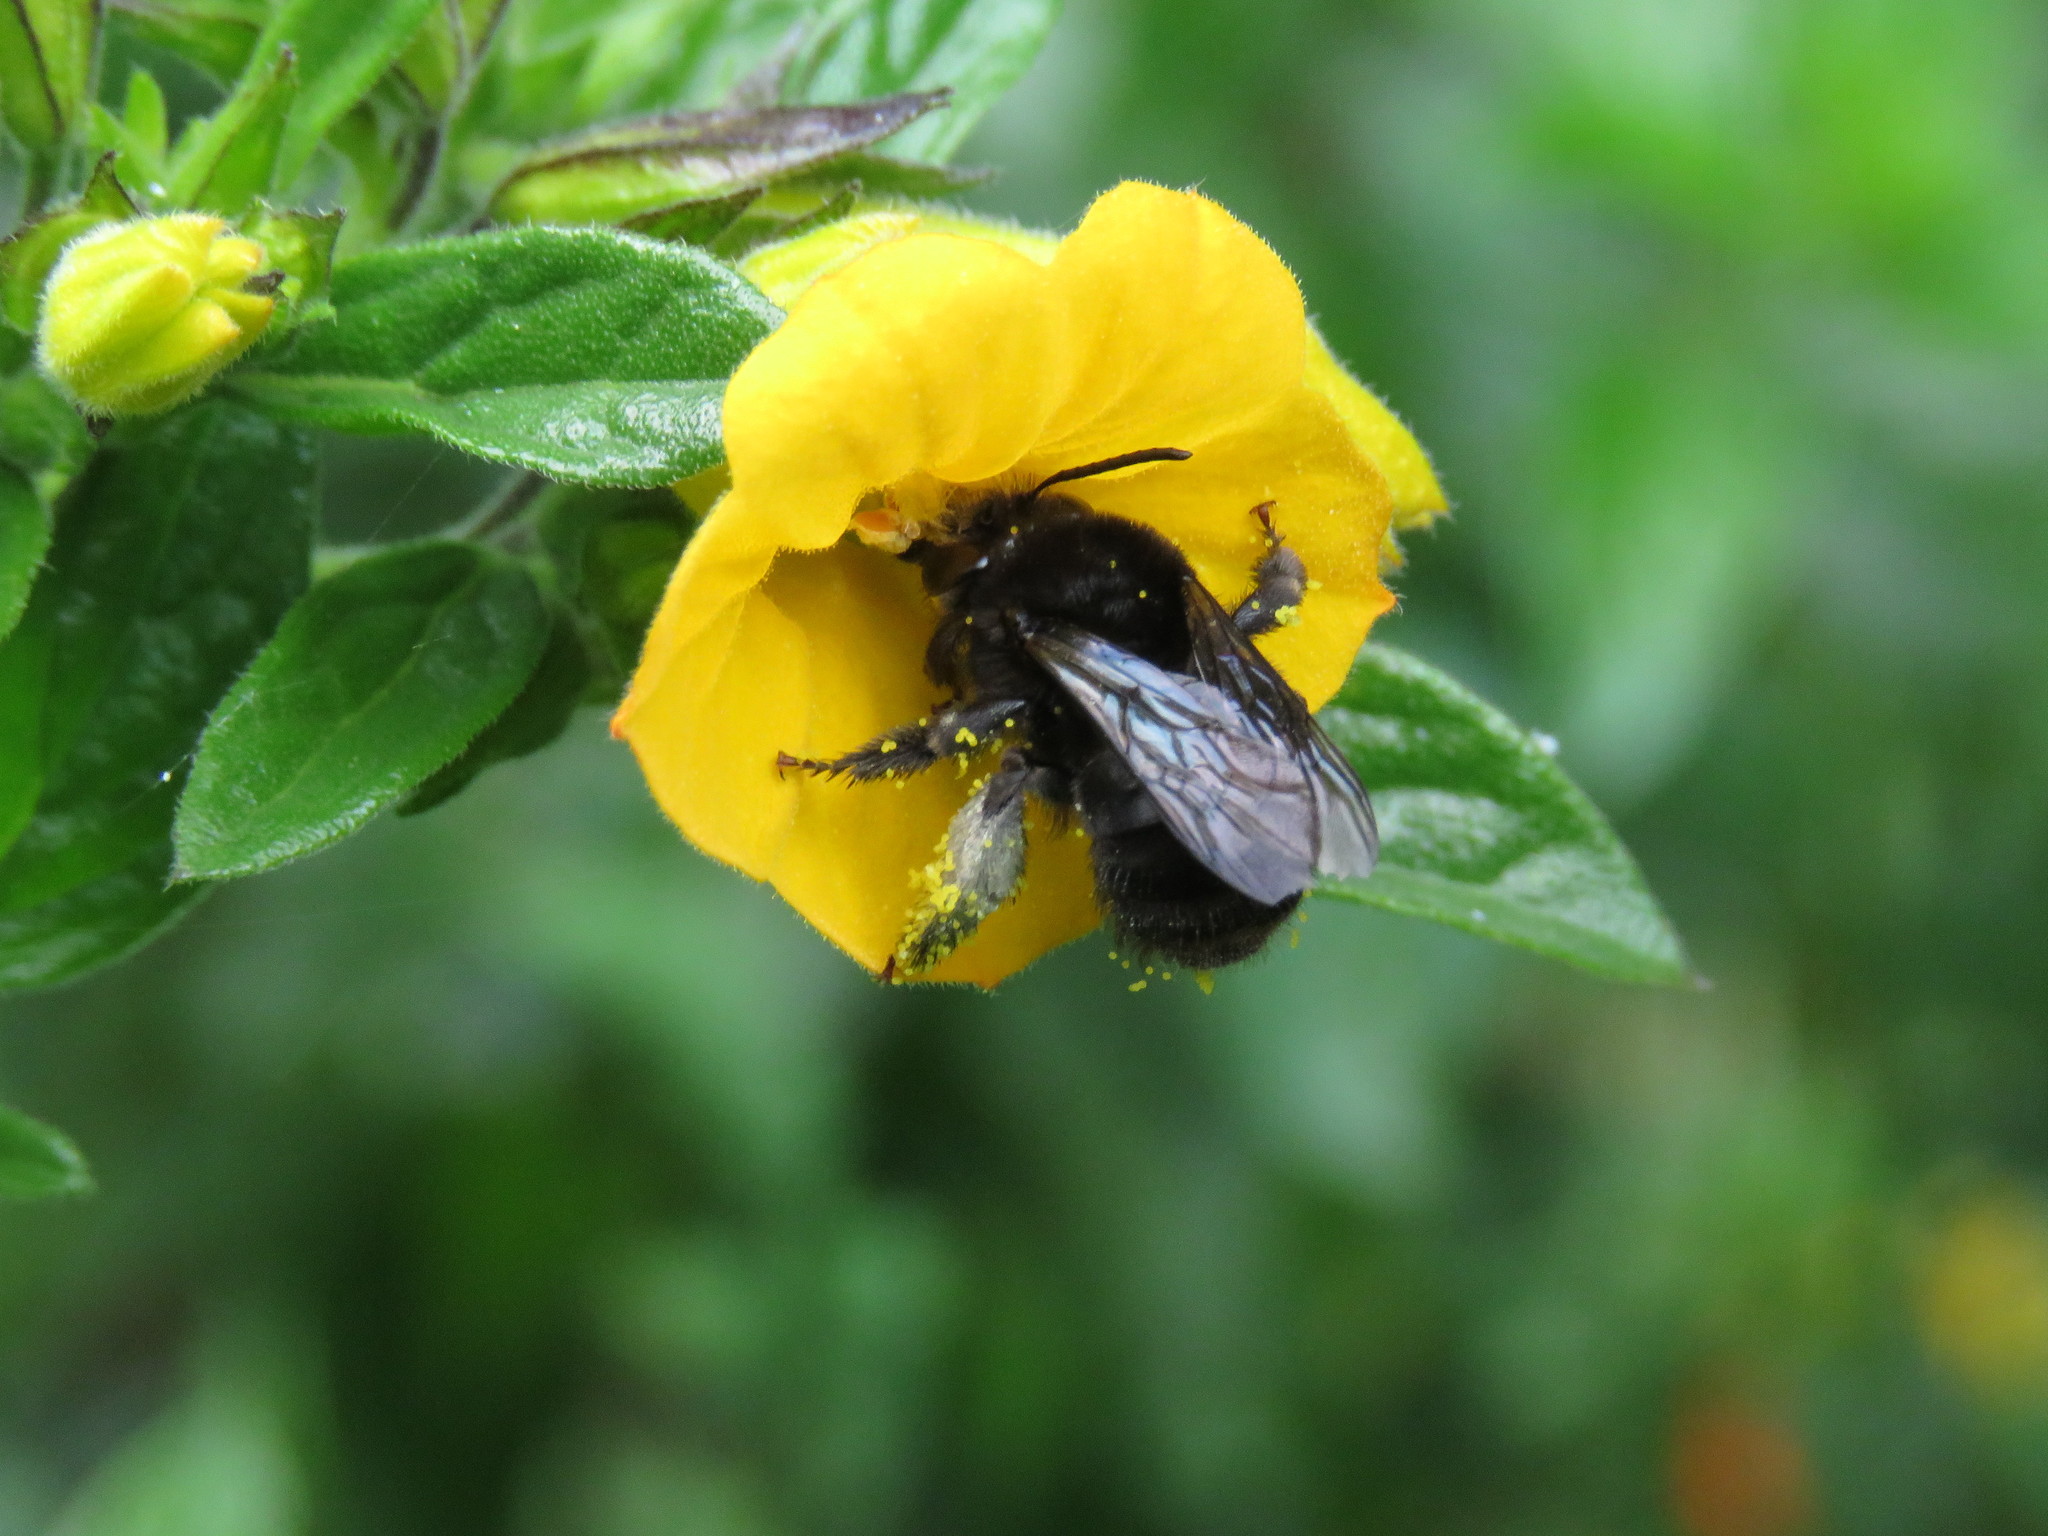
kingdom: Animalia
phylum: Arthropoda
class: Insecta
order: Hymenoptera
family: Apidae
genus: Thygater
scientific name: Thygater aethiops
